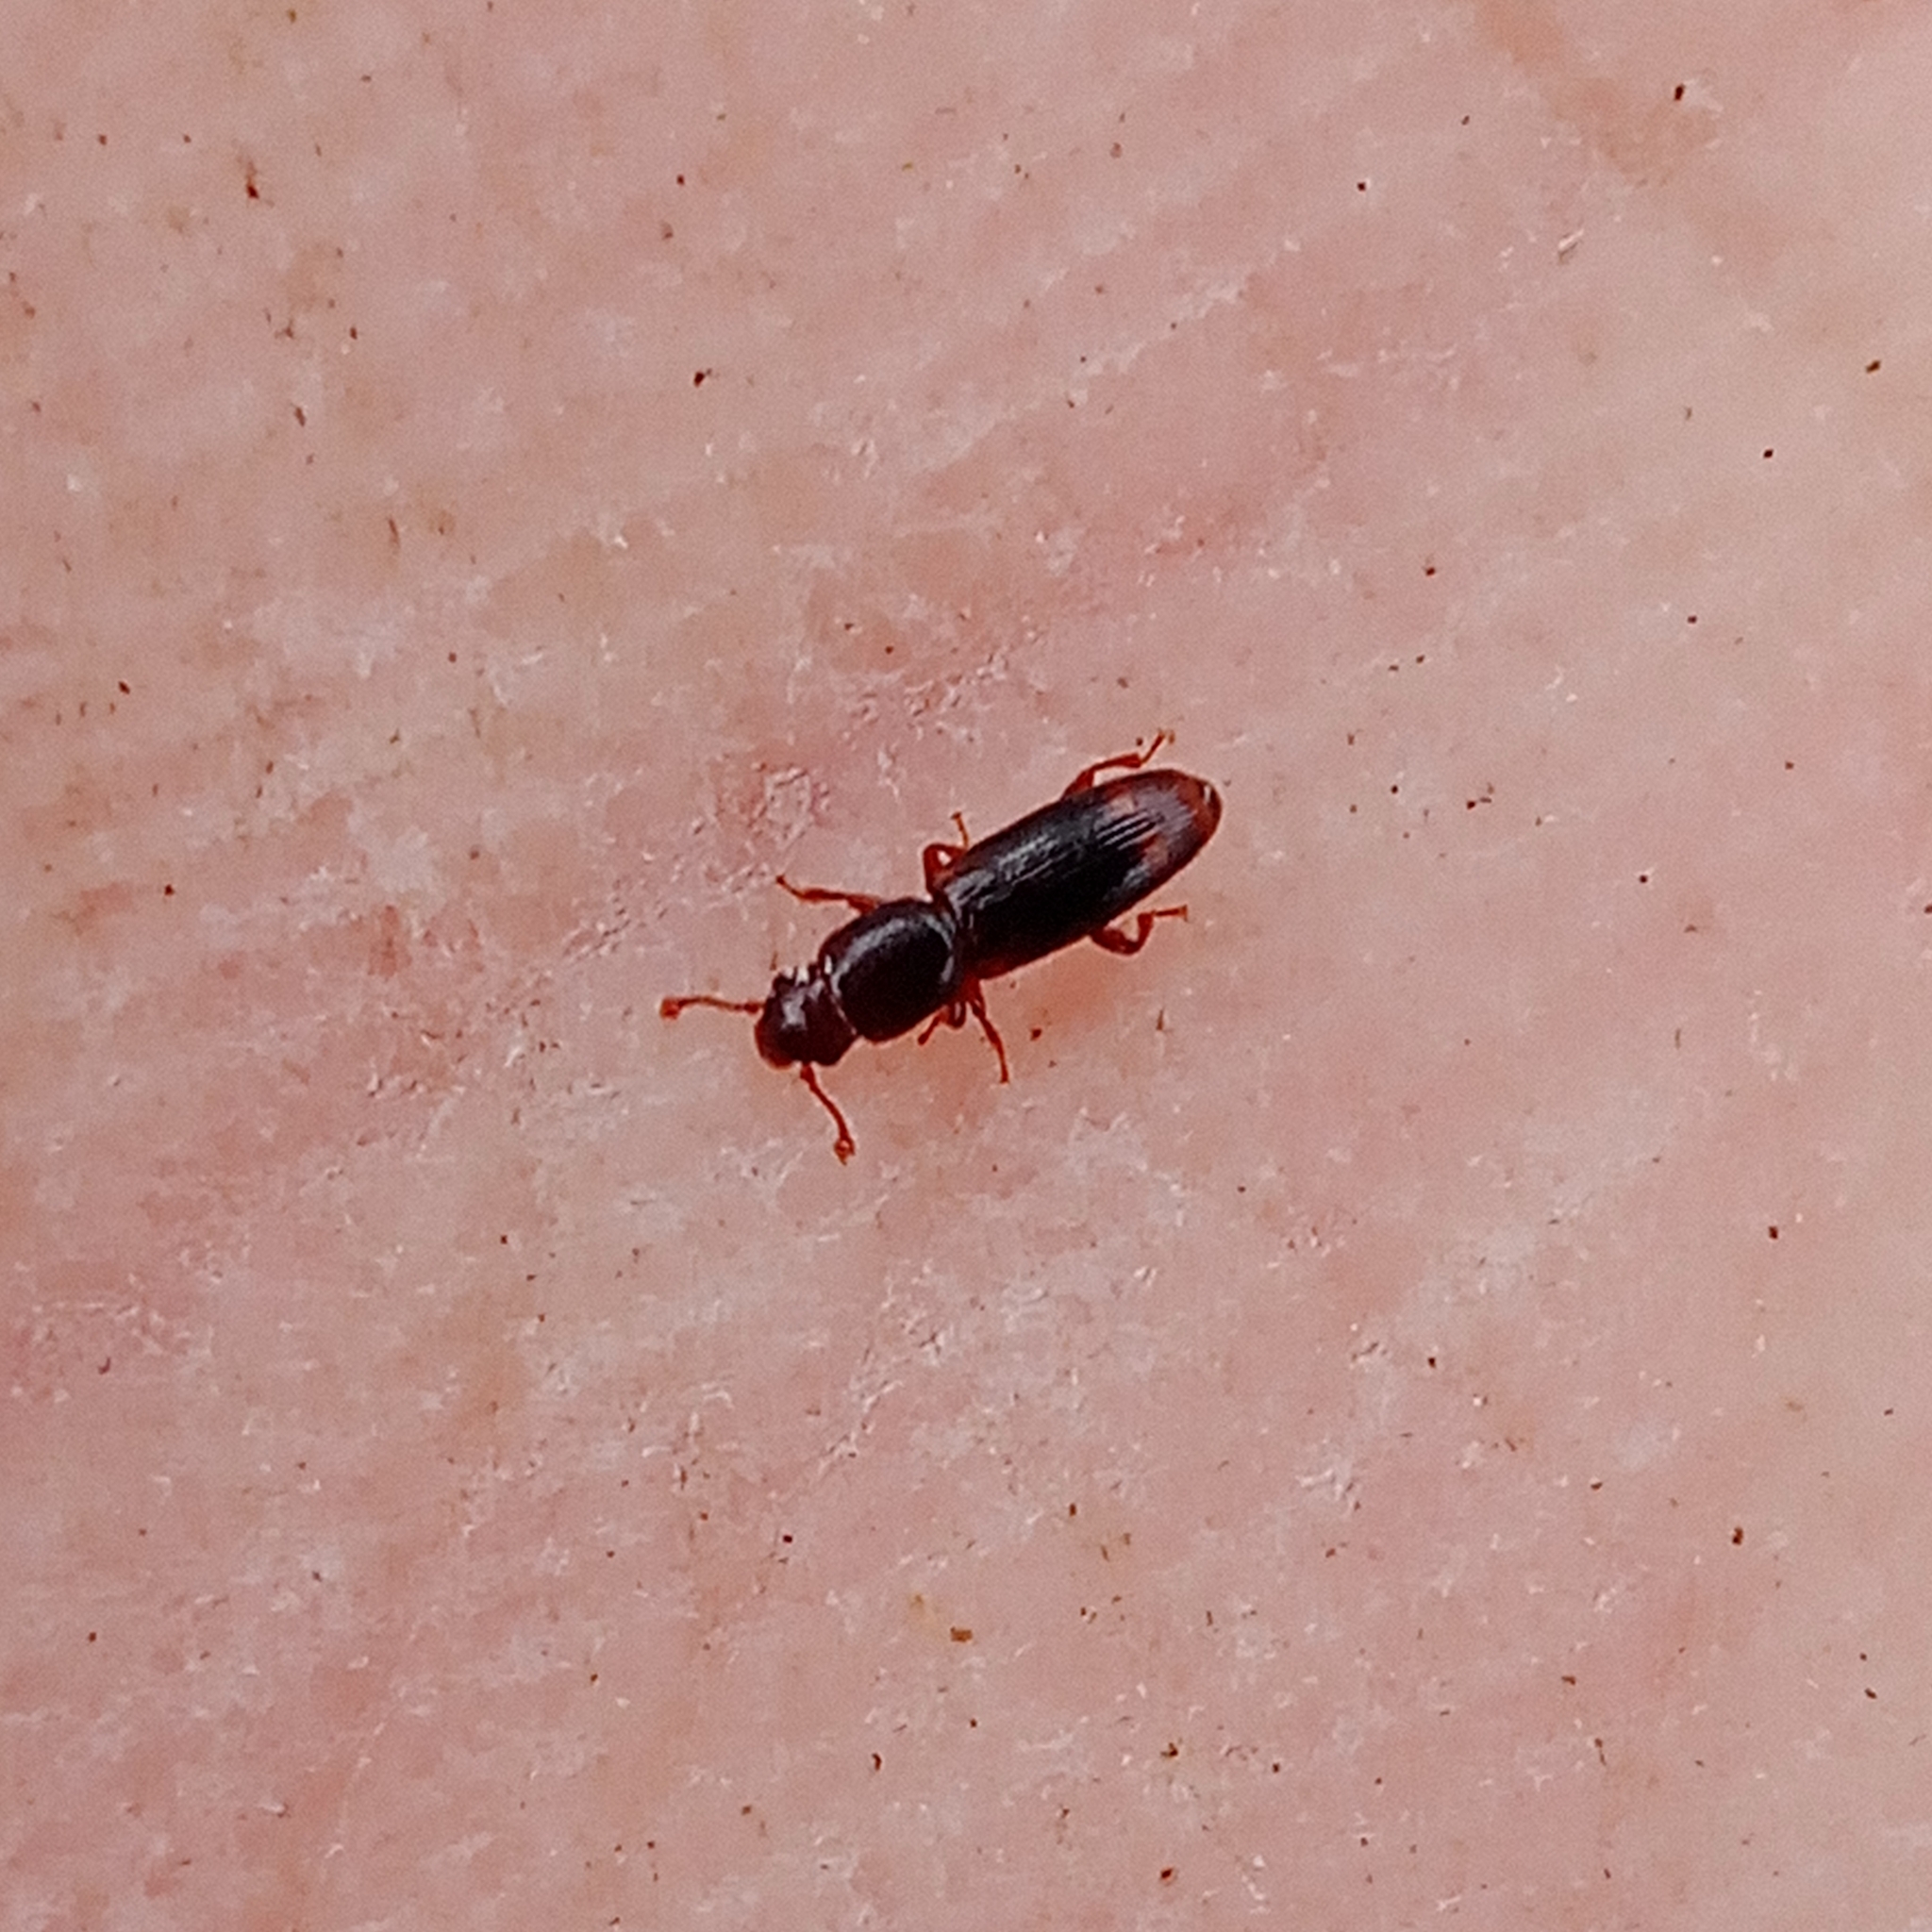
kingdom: Animalia
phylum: Arthropoda
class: Insecta
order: Coleoptera
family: Monotomidae
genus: Rhizophagus
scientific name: Rhizophagus bipustulatus
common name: Root-eating beetle
